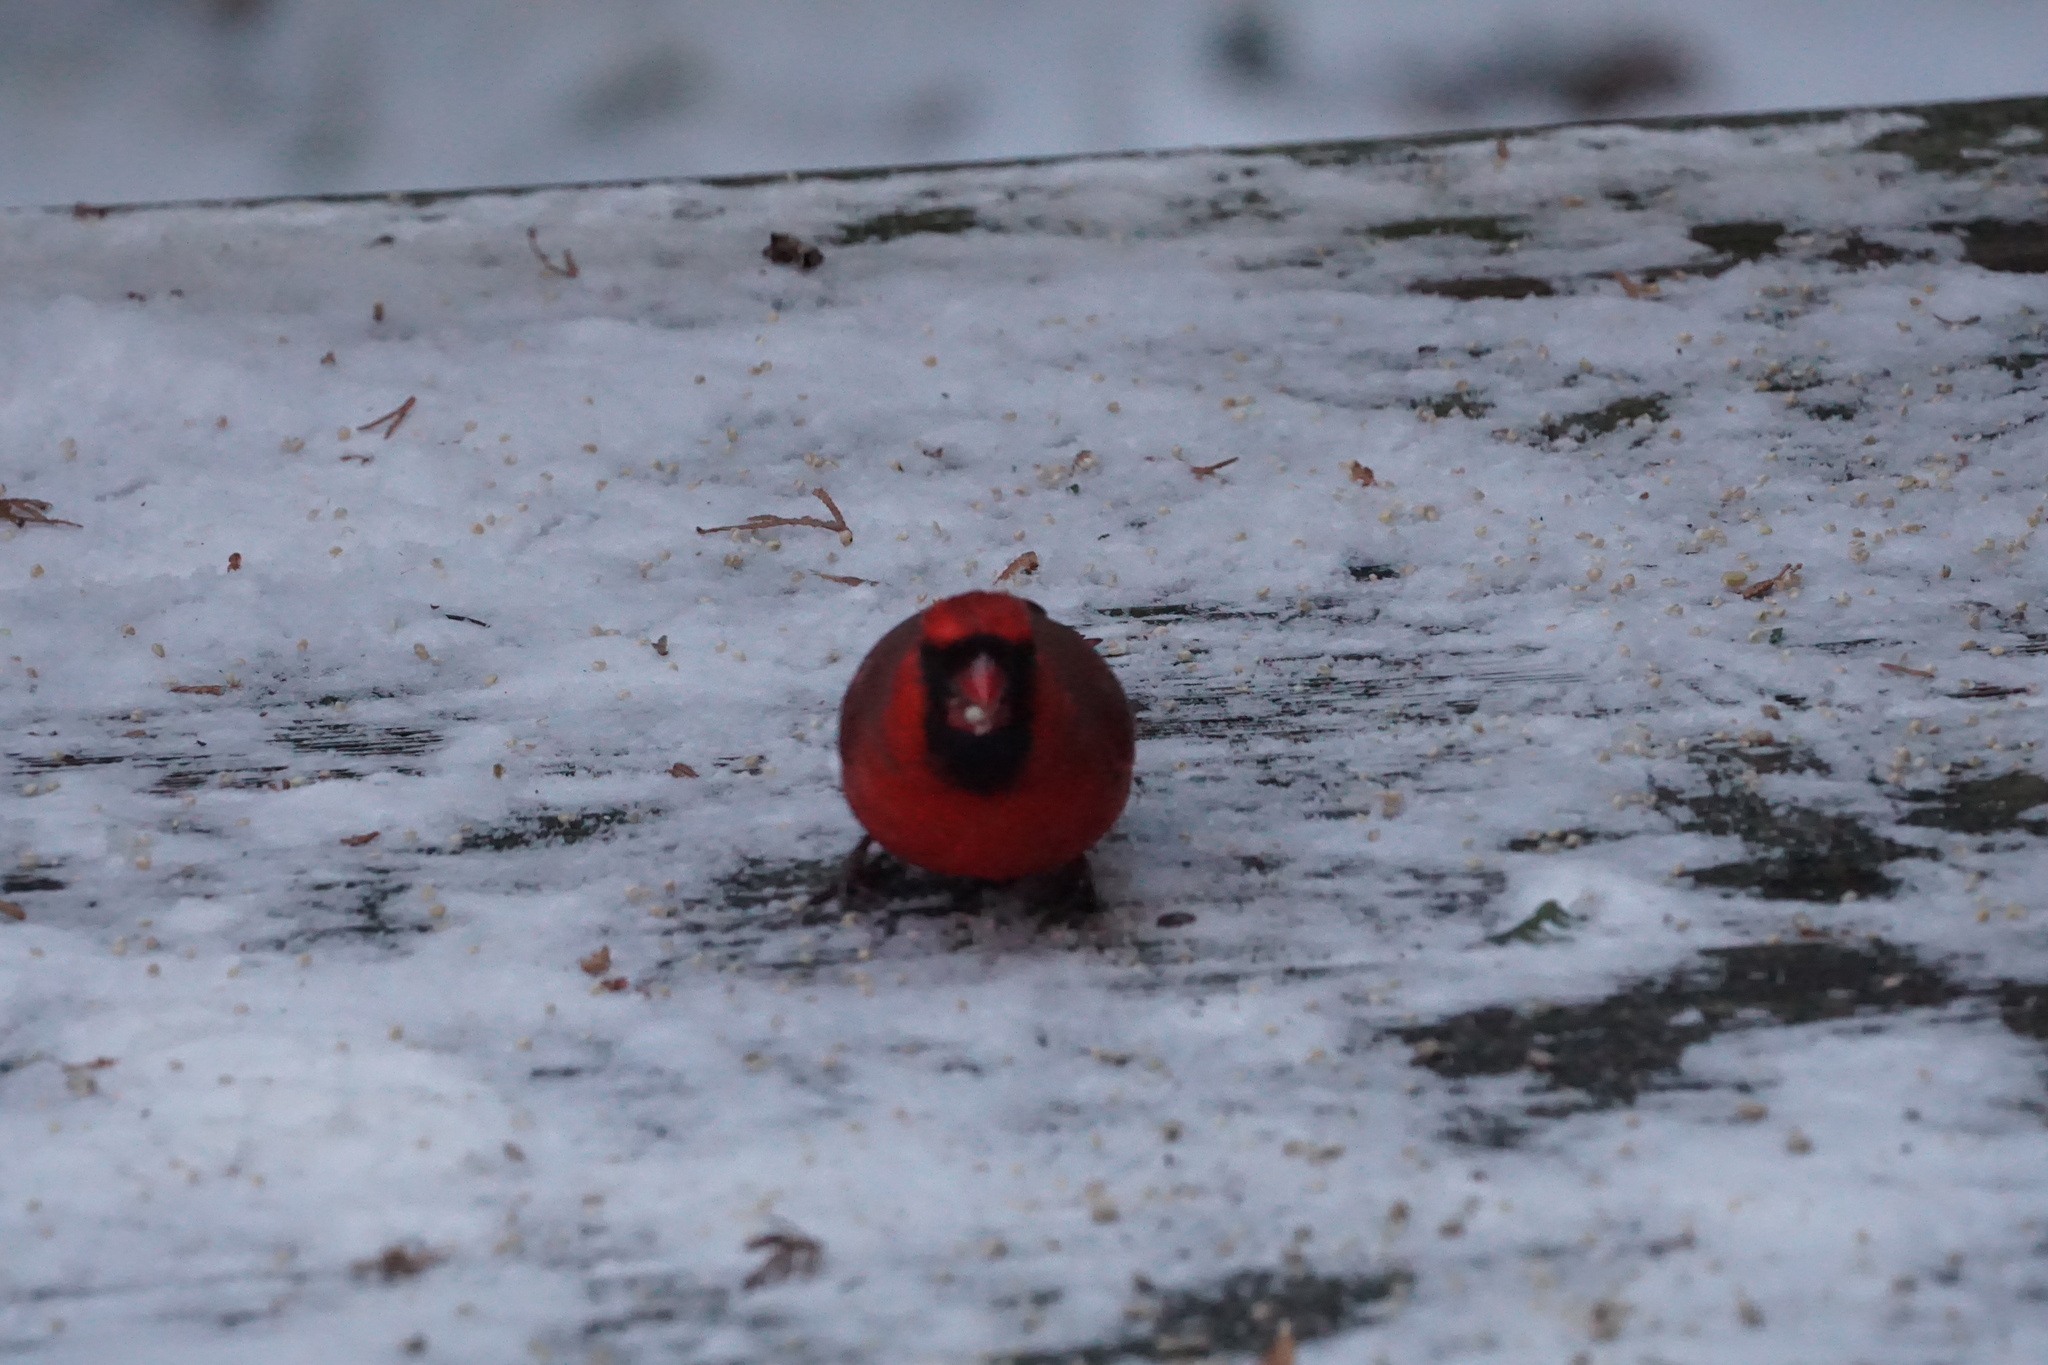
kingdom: Animalia
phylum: Chordata
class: Aves
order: Passeriformes
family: Cardinalidae
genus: Cardinalis
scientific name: Cardinalis cardinalis
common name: Northern cardinal
